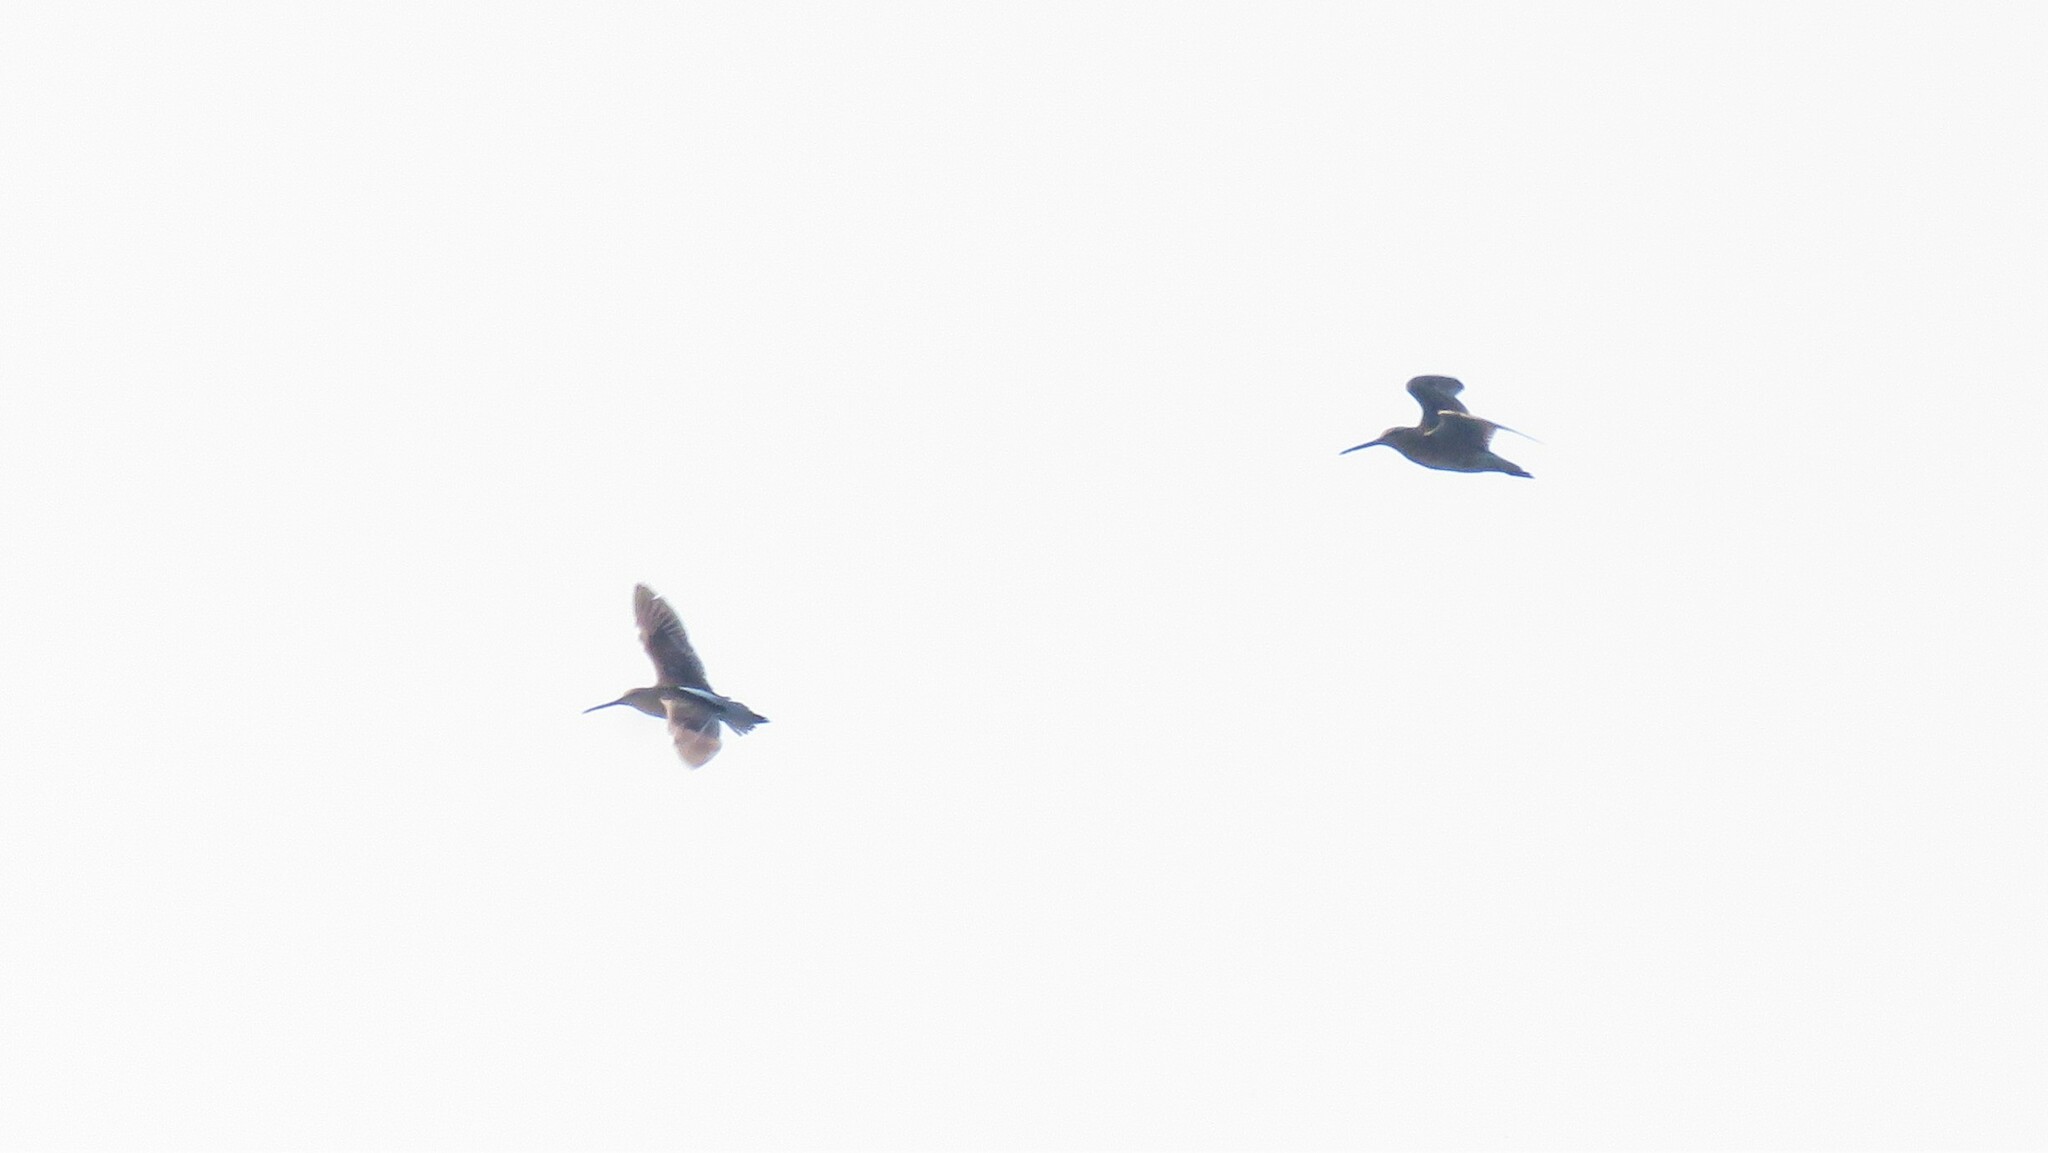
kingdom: Animalia
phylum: Chordata
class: Aves
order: Charadriiformes
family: Scolopacidae
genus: Limnodromus
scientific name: Limnodromus griseus
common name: Short-billed dowitcher
